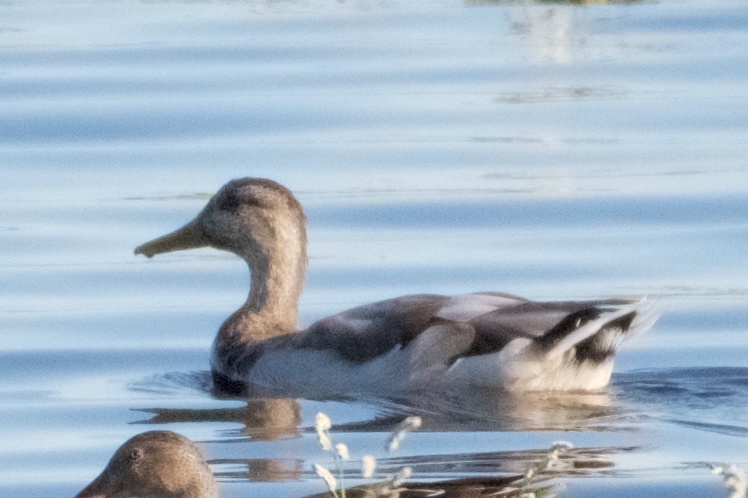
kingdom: Animalia
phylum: Chordata
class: Aves
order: Anseriformes
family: Anatidae
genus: Anas
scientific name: Anas platyrhynchos
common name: Mallard
